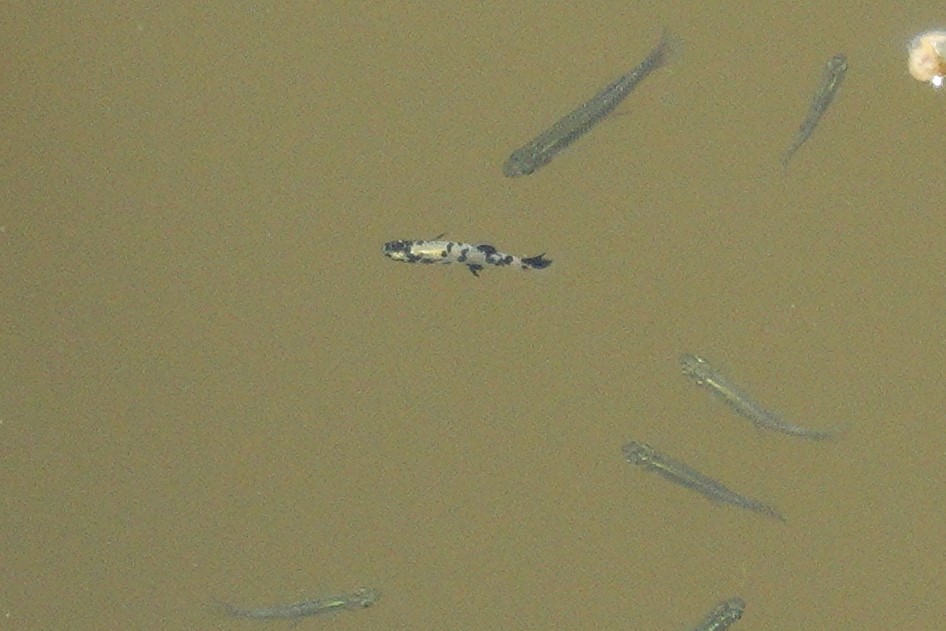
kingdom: Animalia
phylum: Chordata
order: Cyprinodontiformes
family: Poeciliidae
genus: Gambusia
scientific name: Gambusia holbrooki
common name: Eastern mosquitofish
